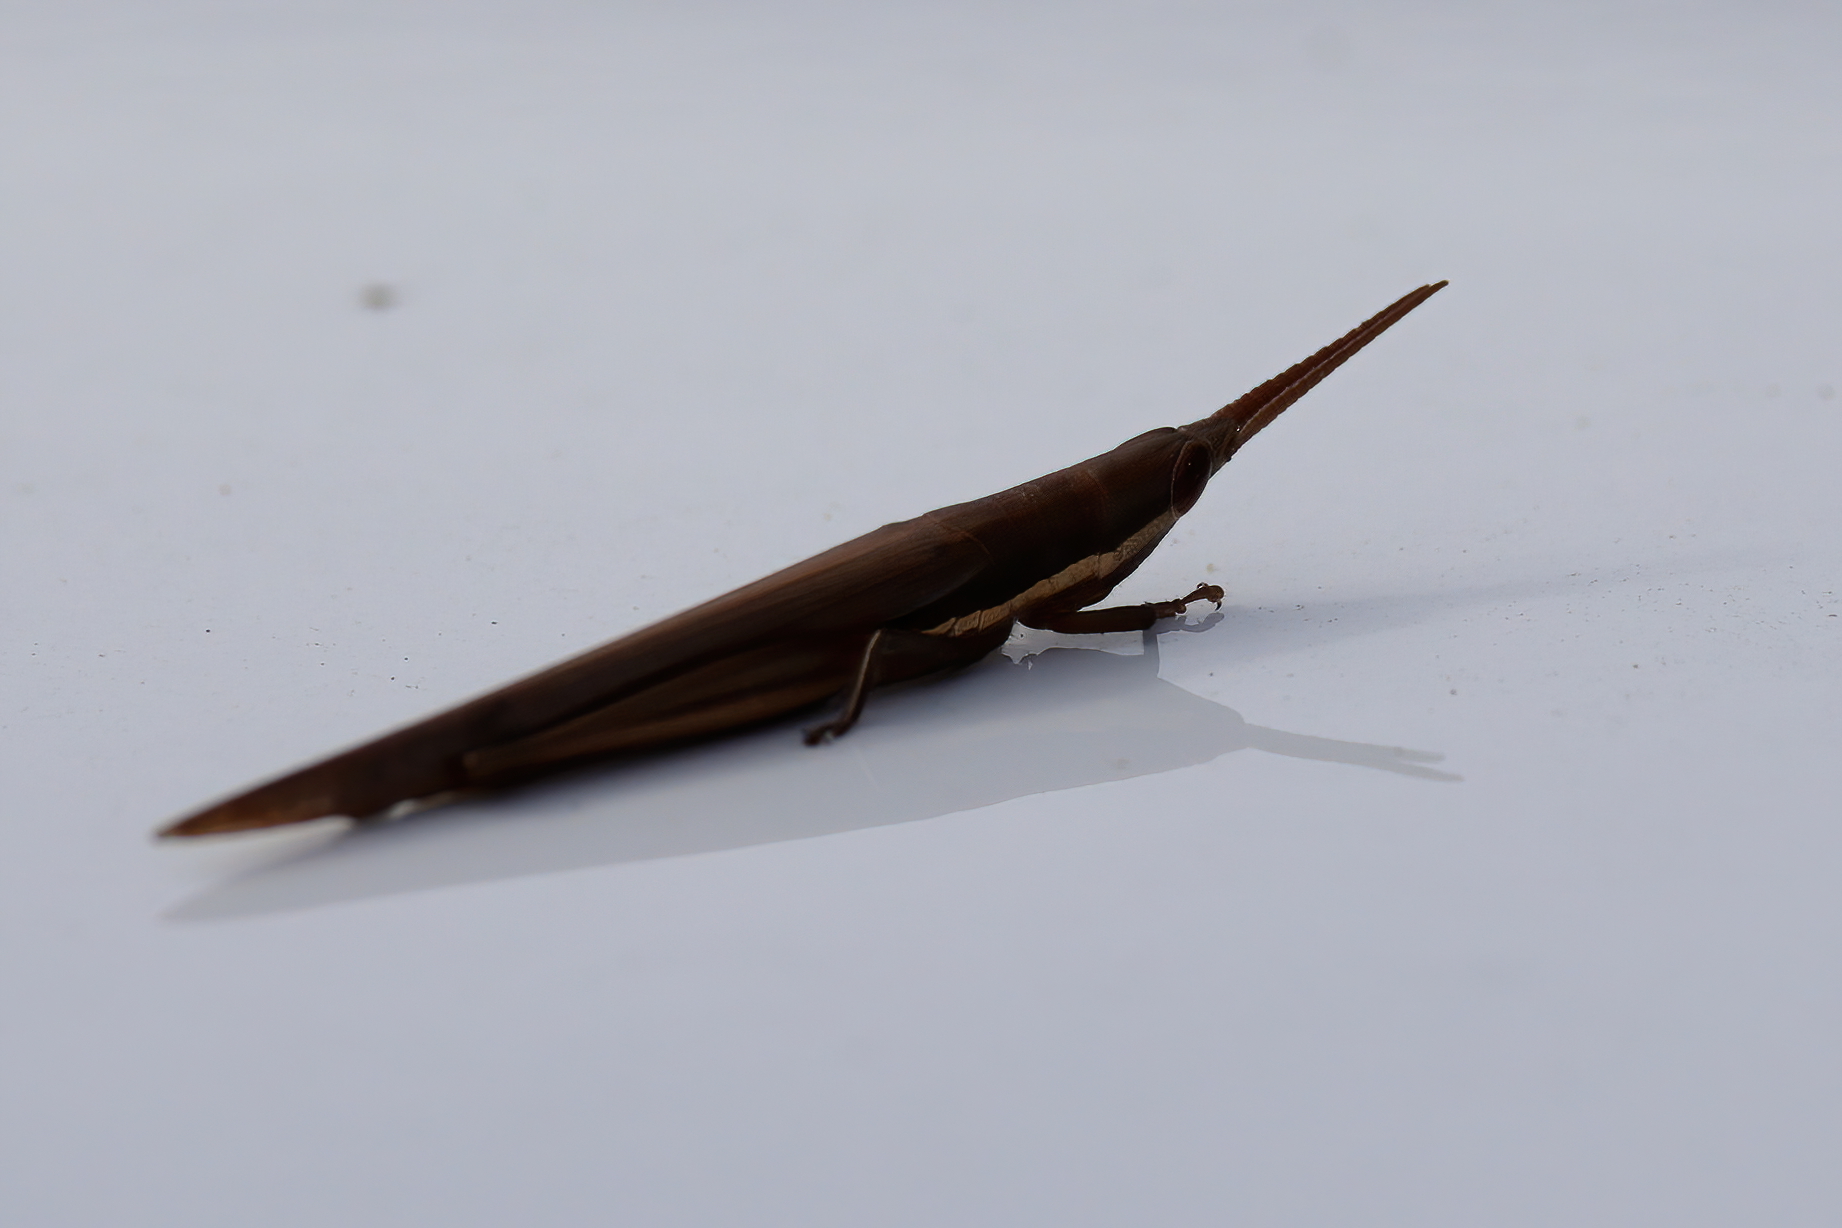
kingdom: Animalia
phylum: Arthropoda
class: Insecta
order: Orthoptera
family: Acrididae
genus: Leptysma
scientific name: Leptysma marginicollis
